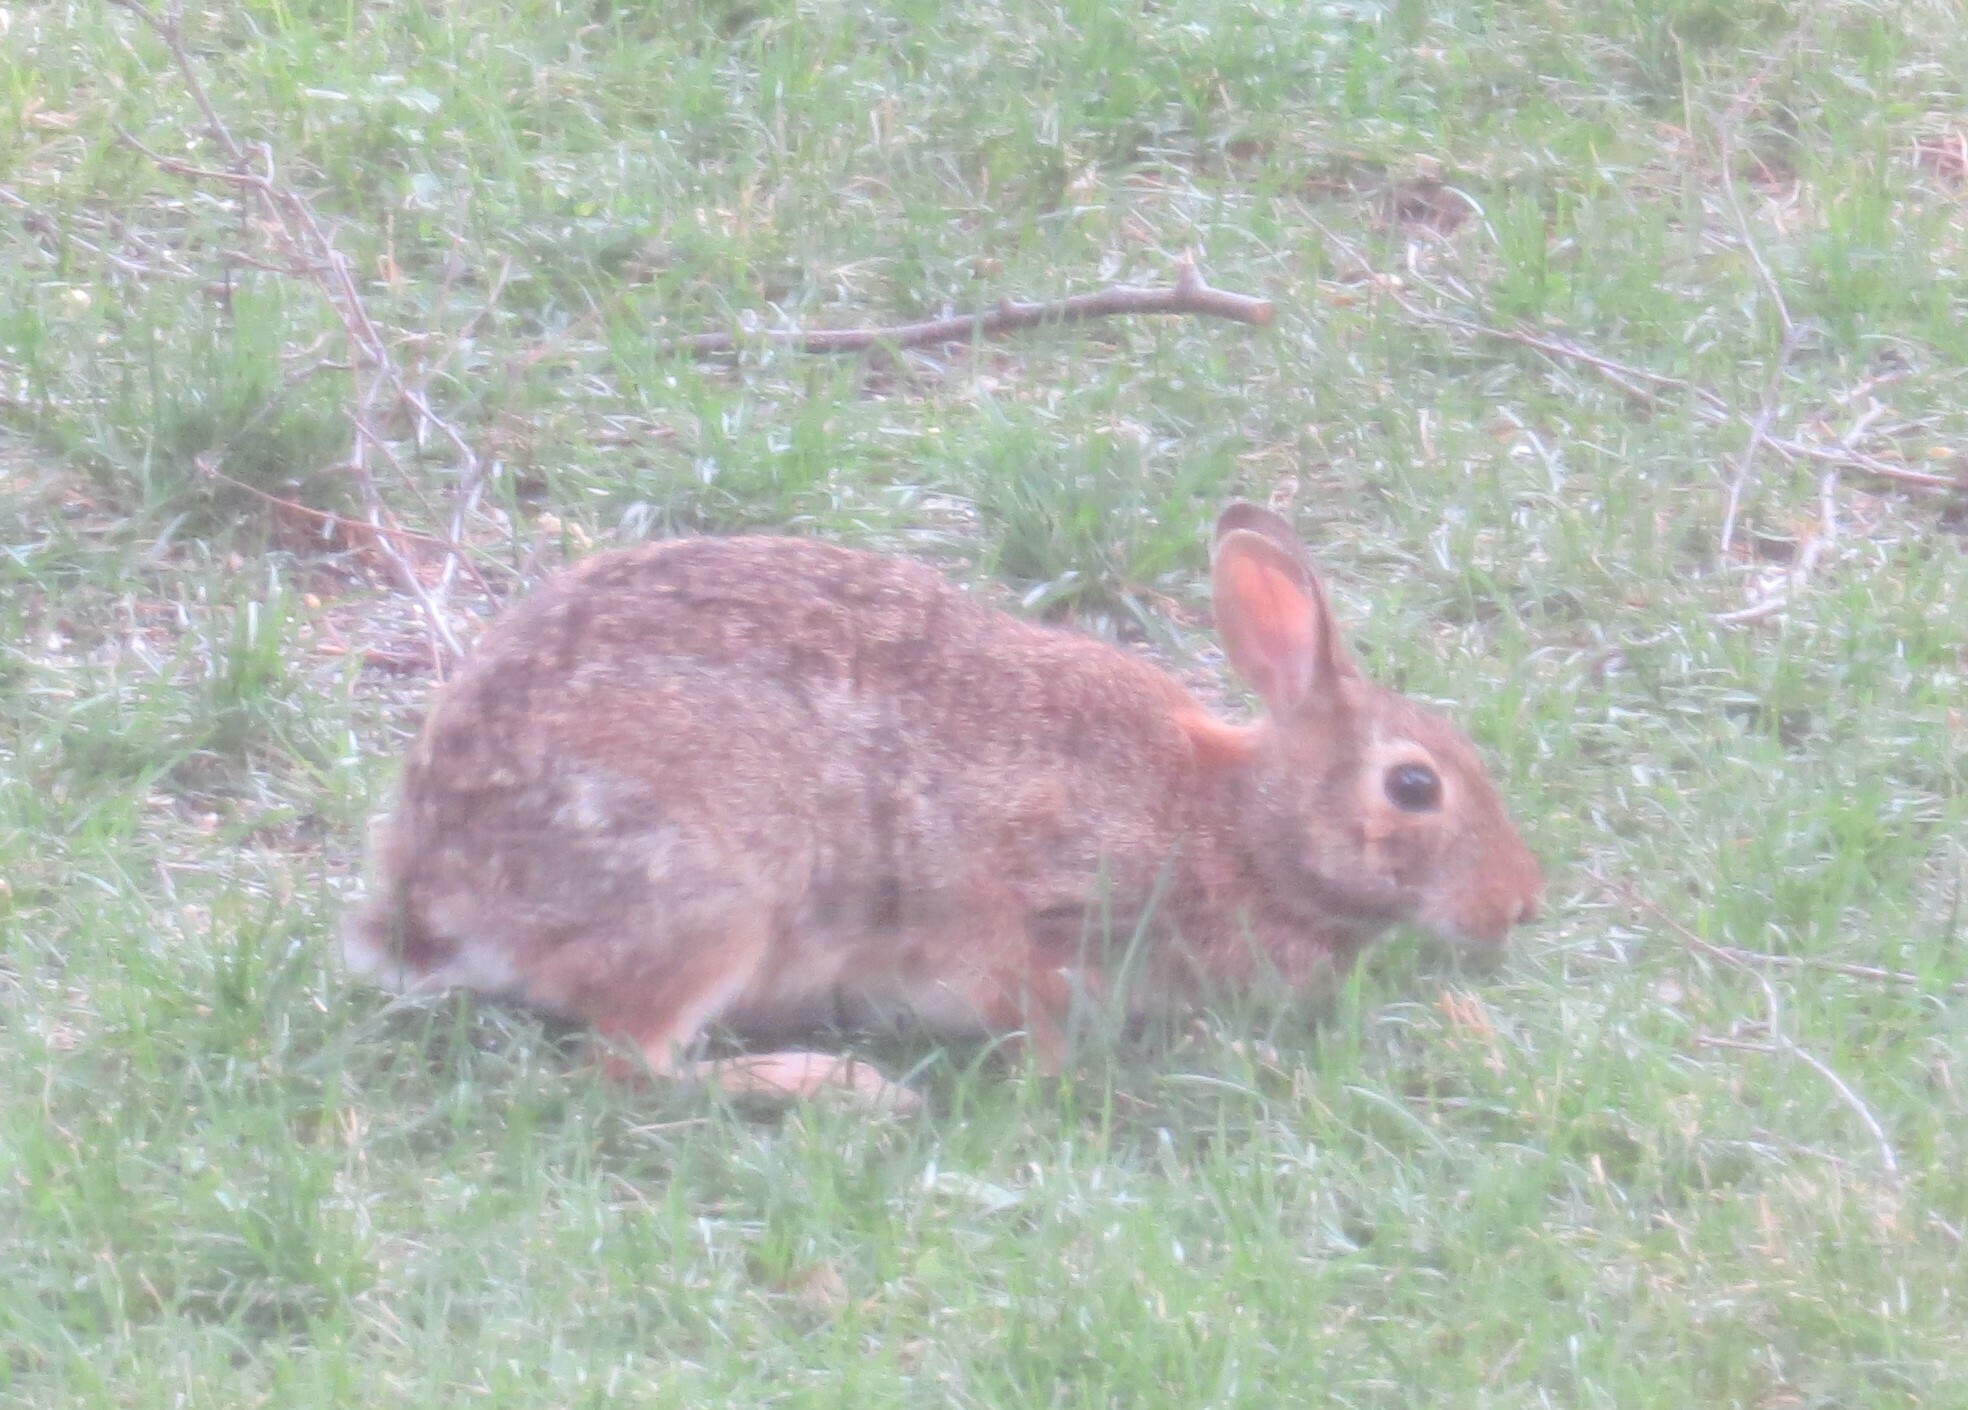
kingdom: Animalia
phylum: Chordata
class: Mammalia
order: Lagomorpha
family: Leporidae
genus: Sylvilagus
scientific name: Sylvilagus floridanus
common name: Eastern cottontail
